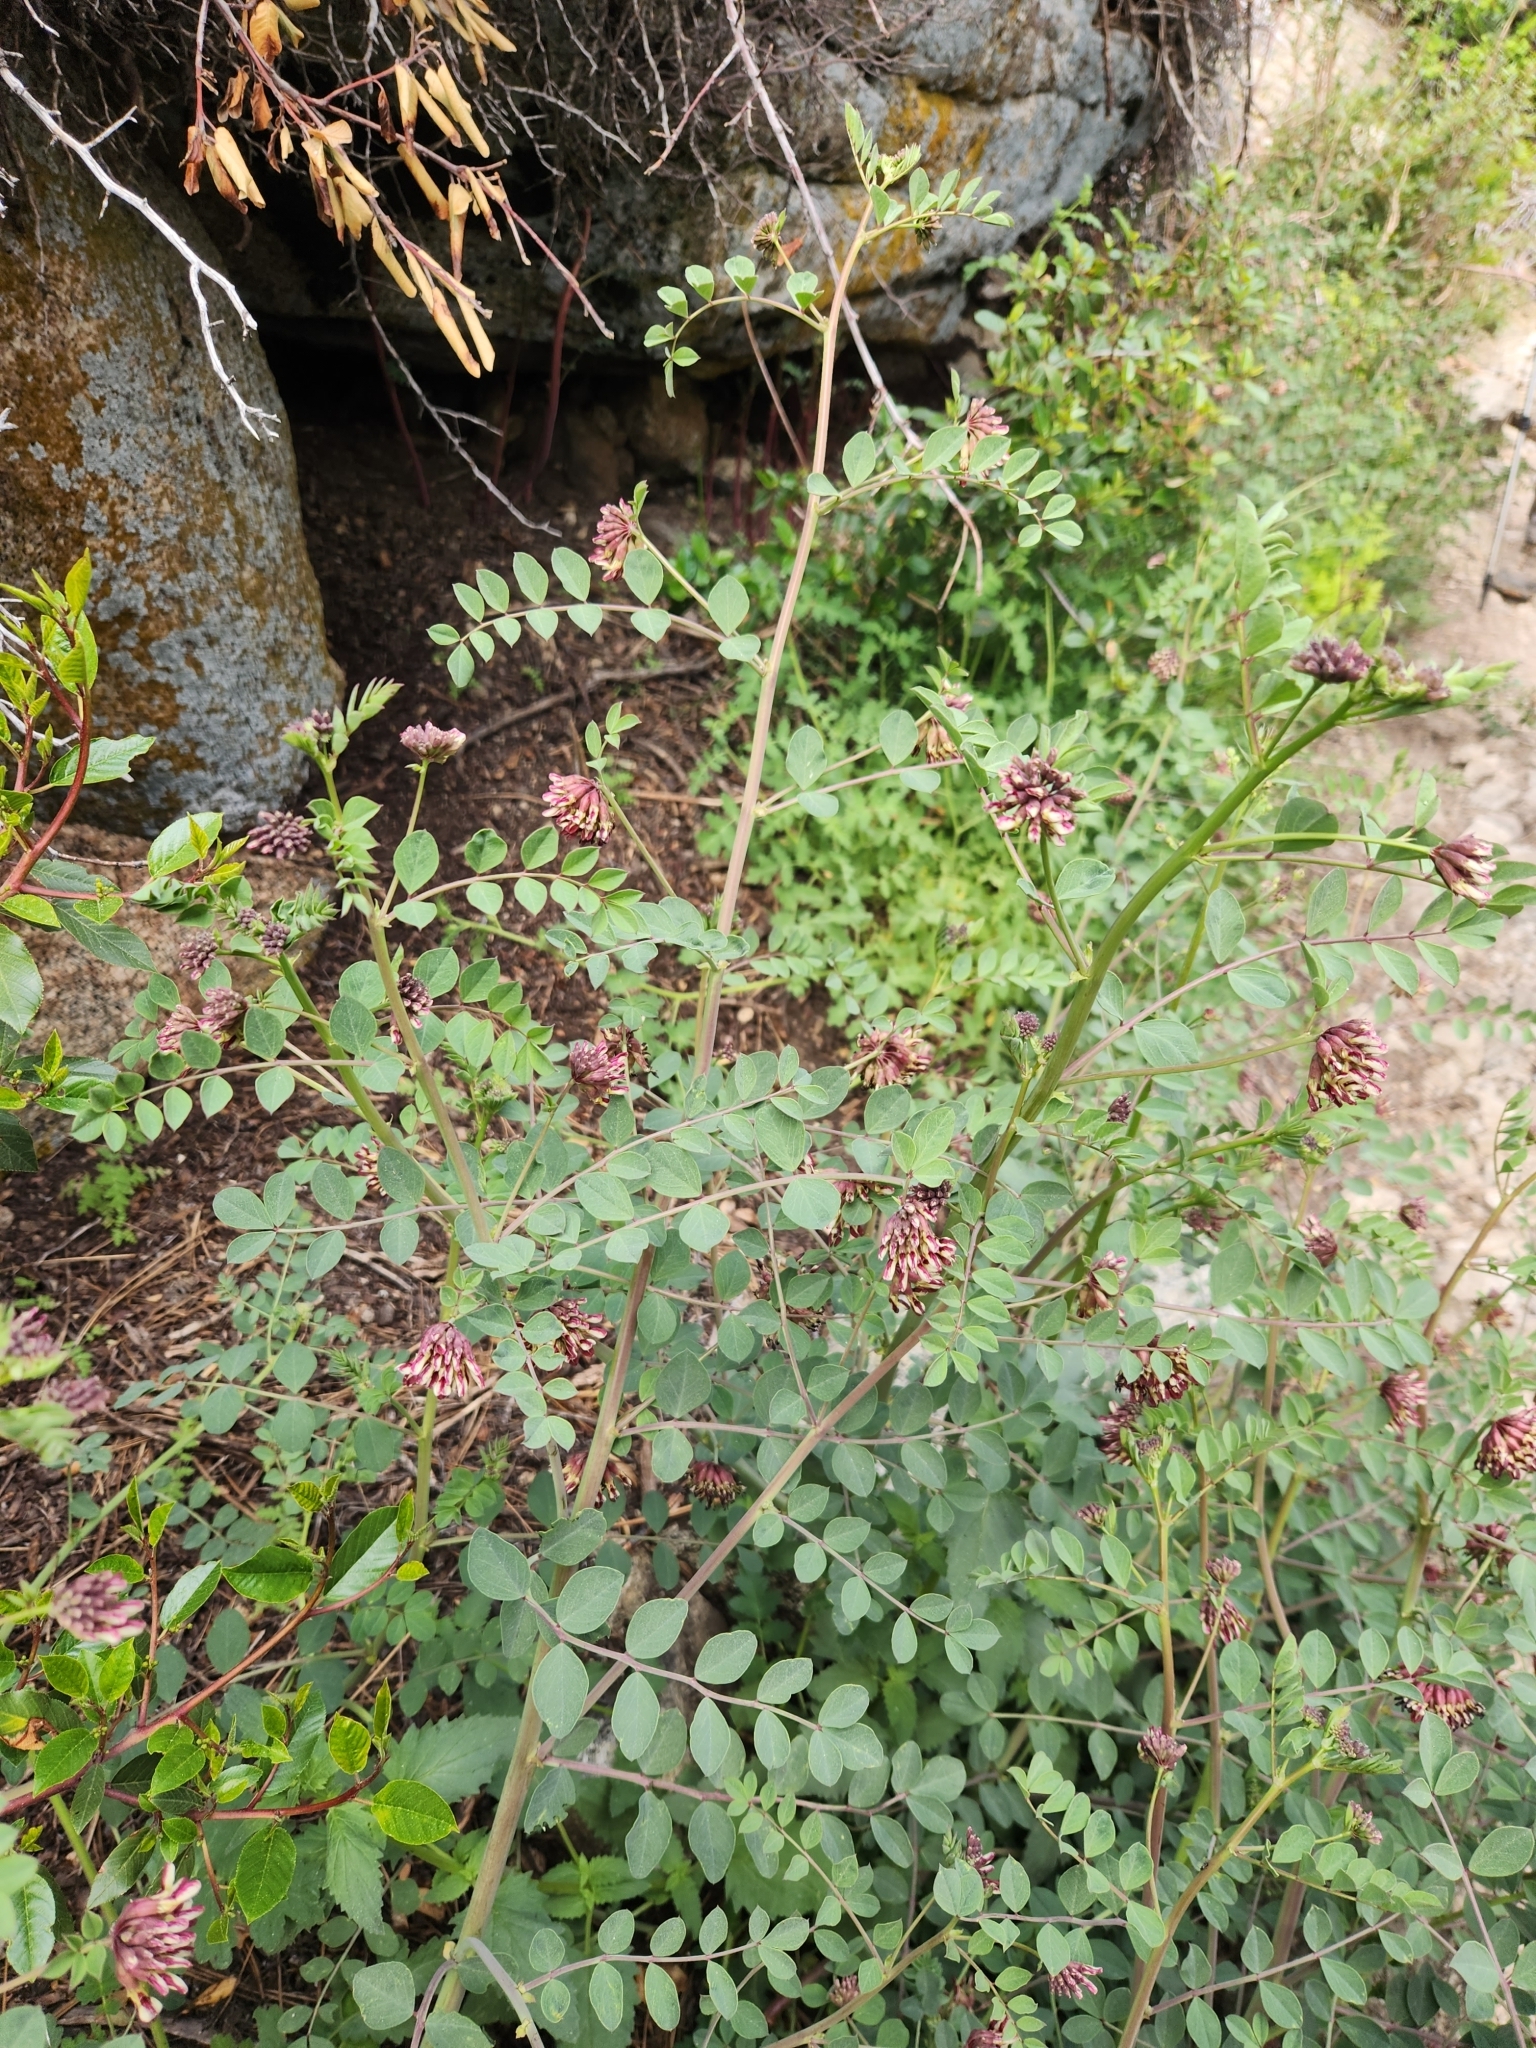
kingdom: Plantae
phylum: Tracheophyta
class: Magnoliopsida
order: Fabales
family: Fabaceae
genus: Hosackia
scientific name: Hosackia crassifolia
